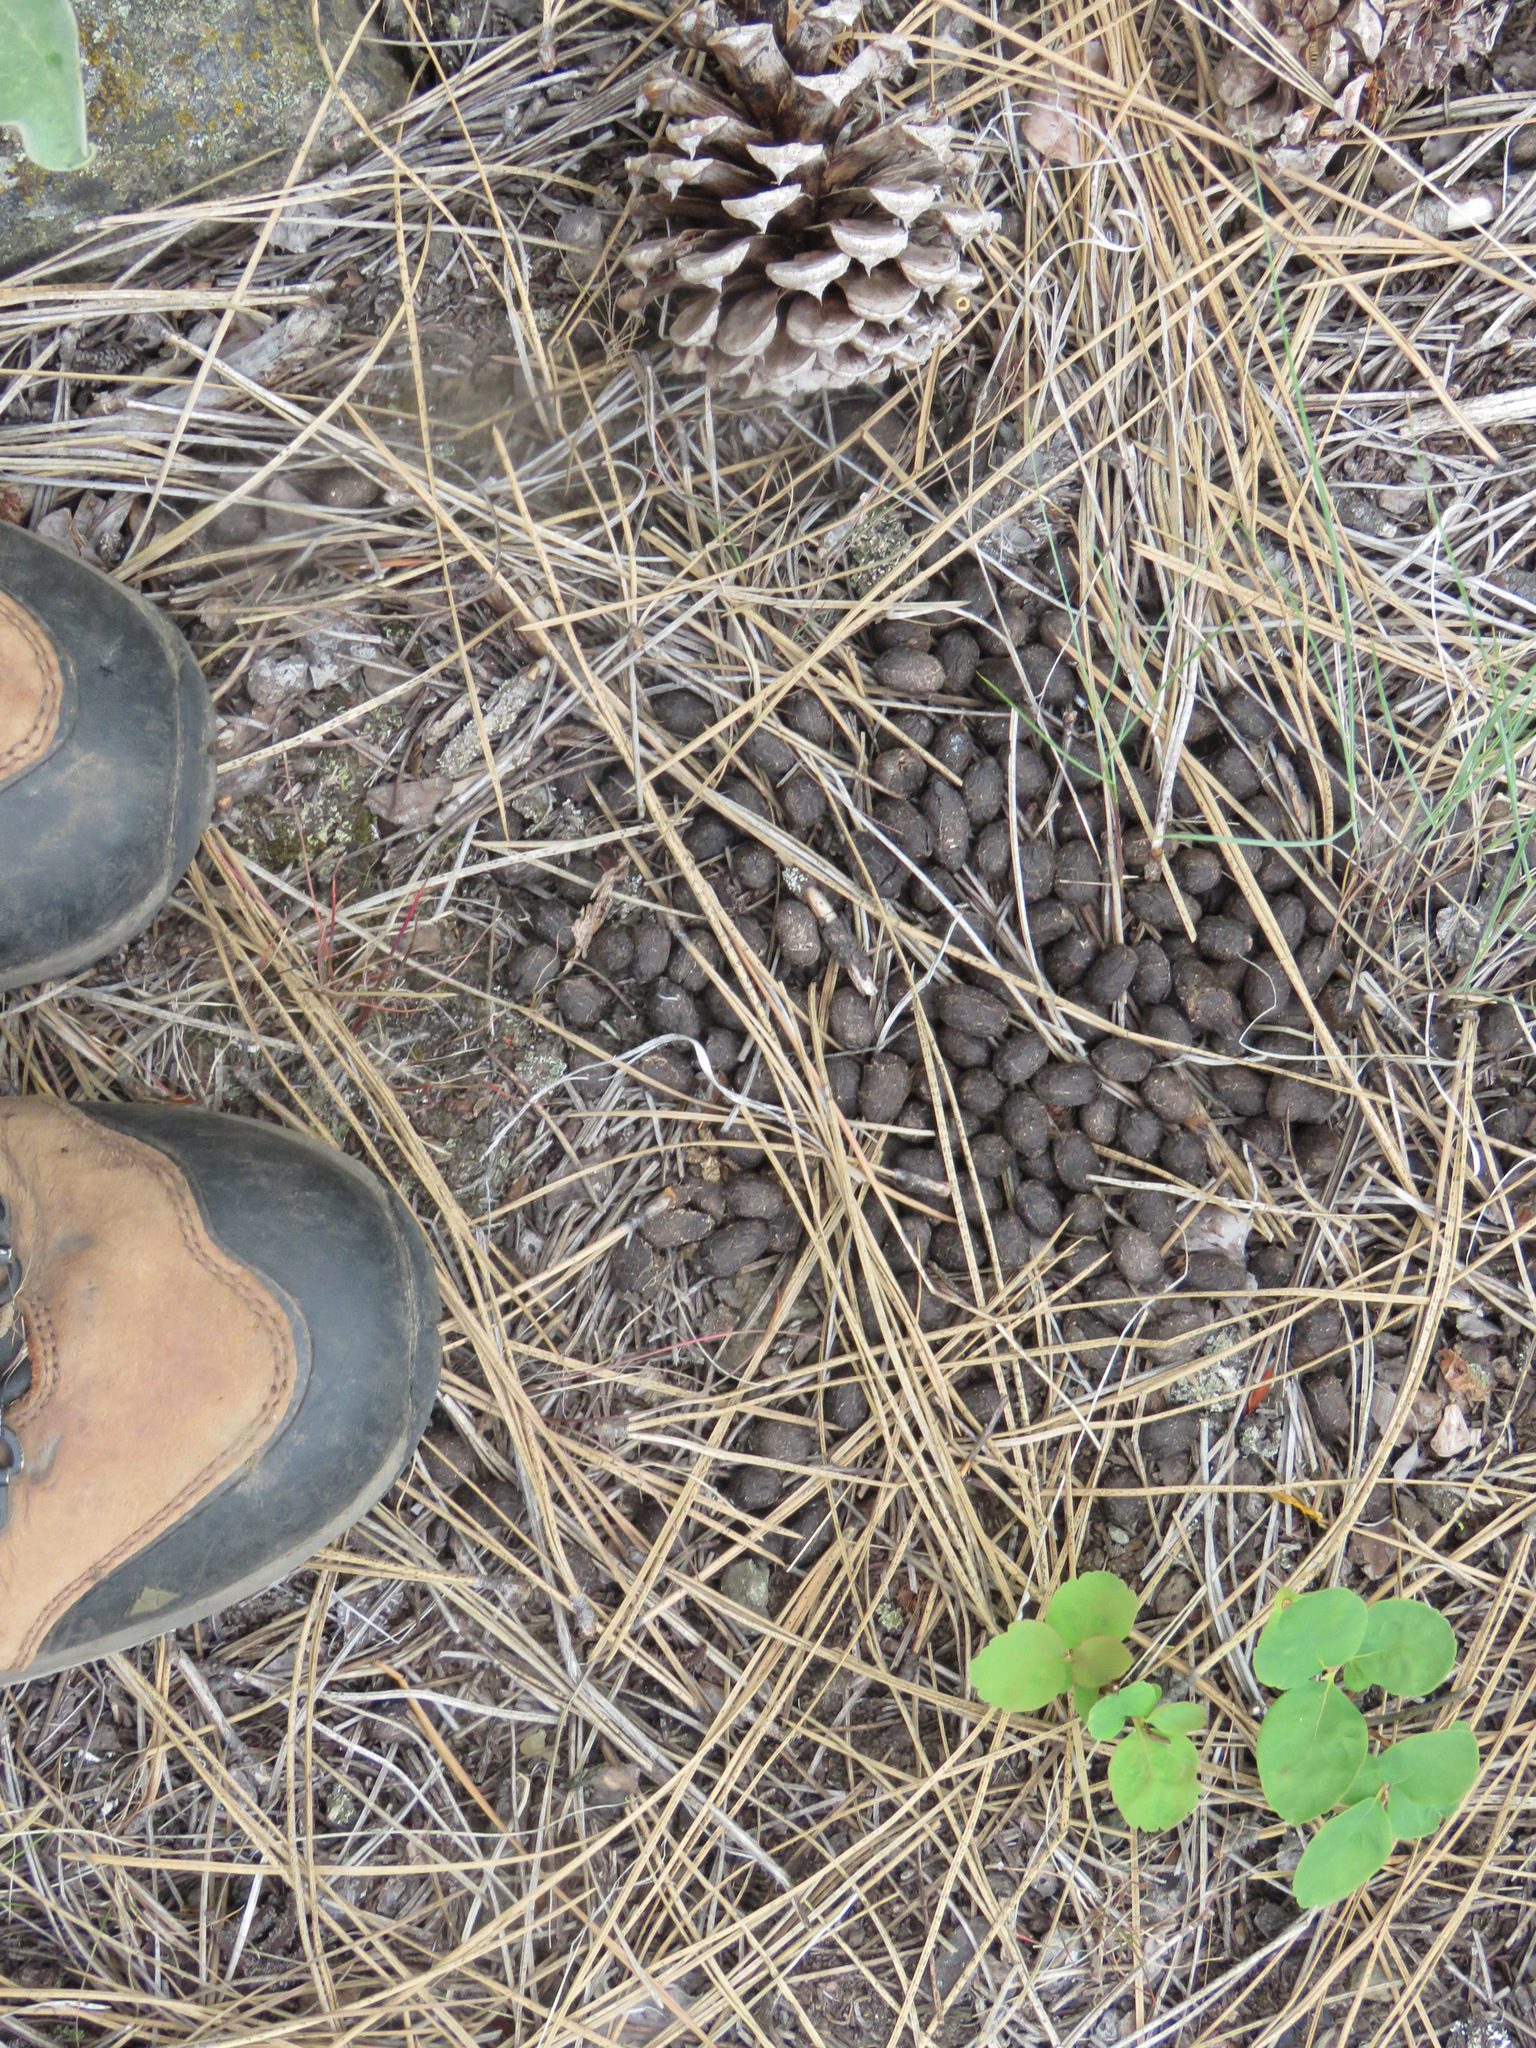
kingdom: Animalia
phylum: Chordata
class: Mammalia
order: Artiodactyla
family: Cervidae
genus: Odocoileus
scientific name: Odocoileus hemionus
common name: Mule deer
